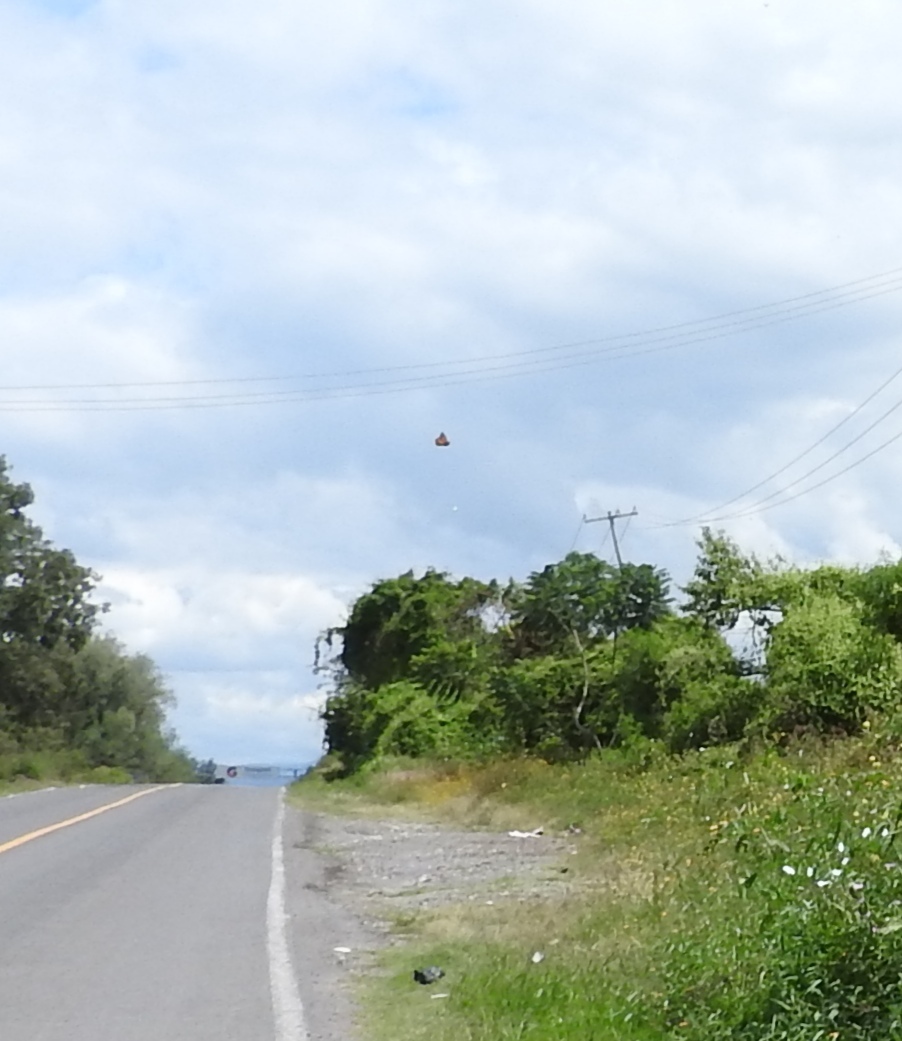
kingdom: Animalia
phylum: Arthropoda
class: Insecta
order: Lepidoptera
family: Nymphalidae
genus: Danaus
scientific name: Danaus plexippus
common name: Monarch
